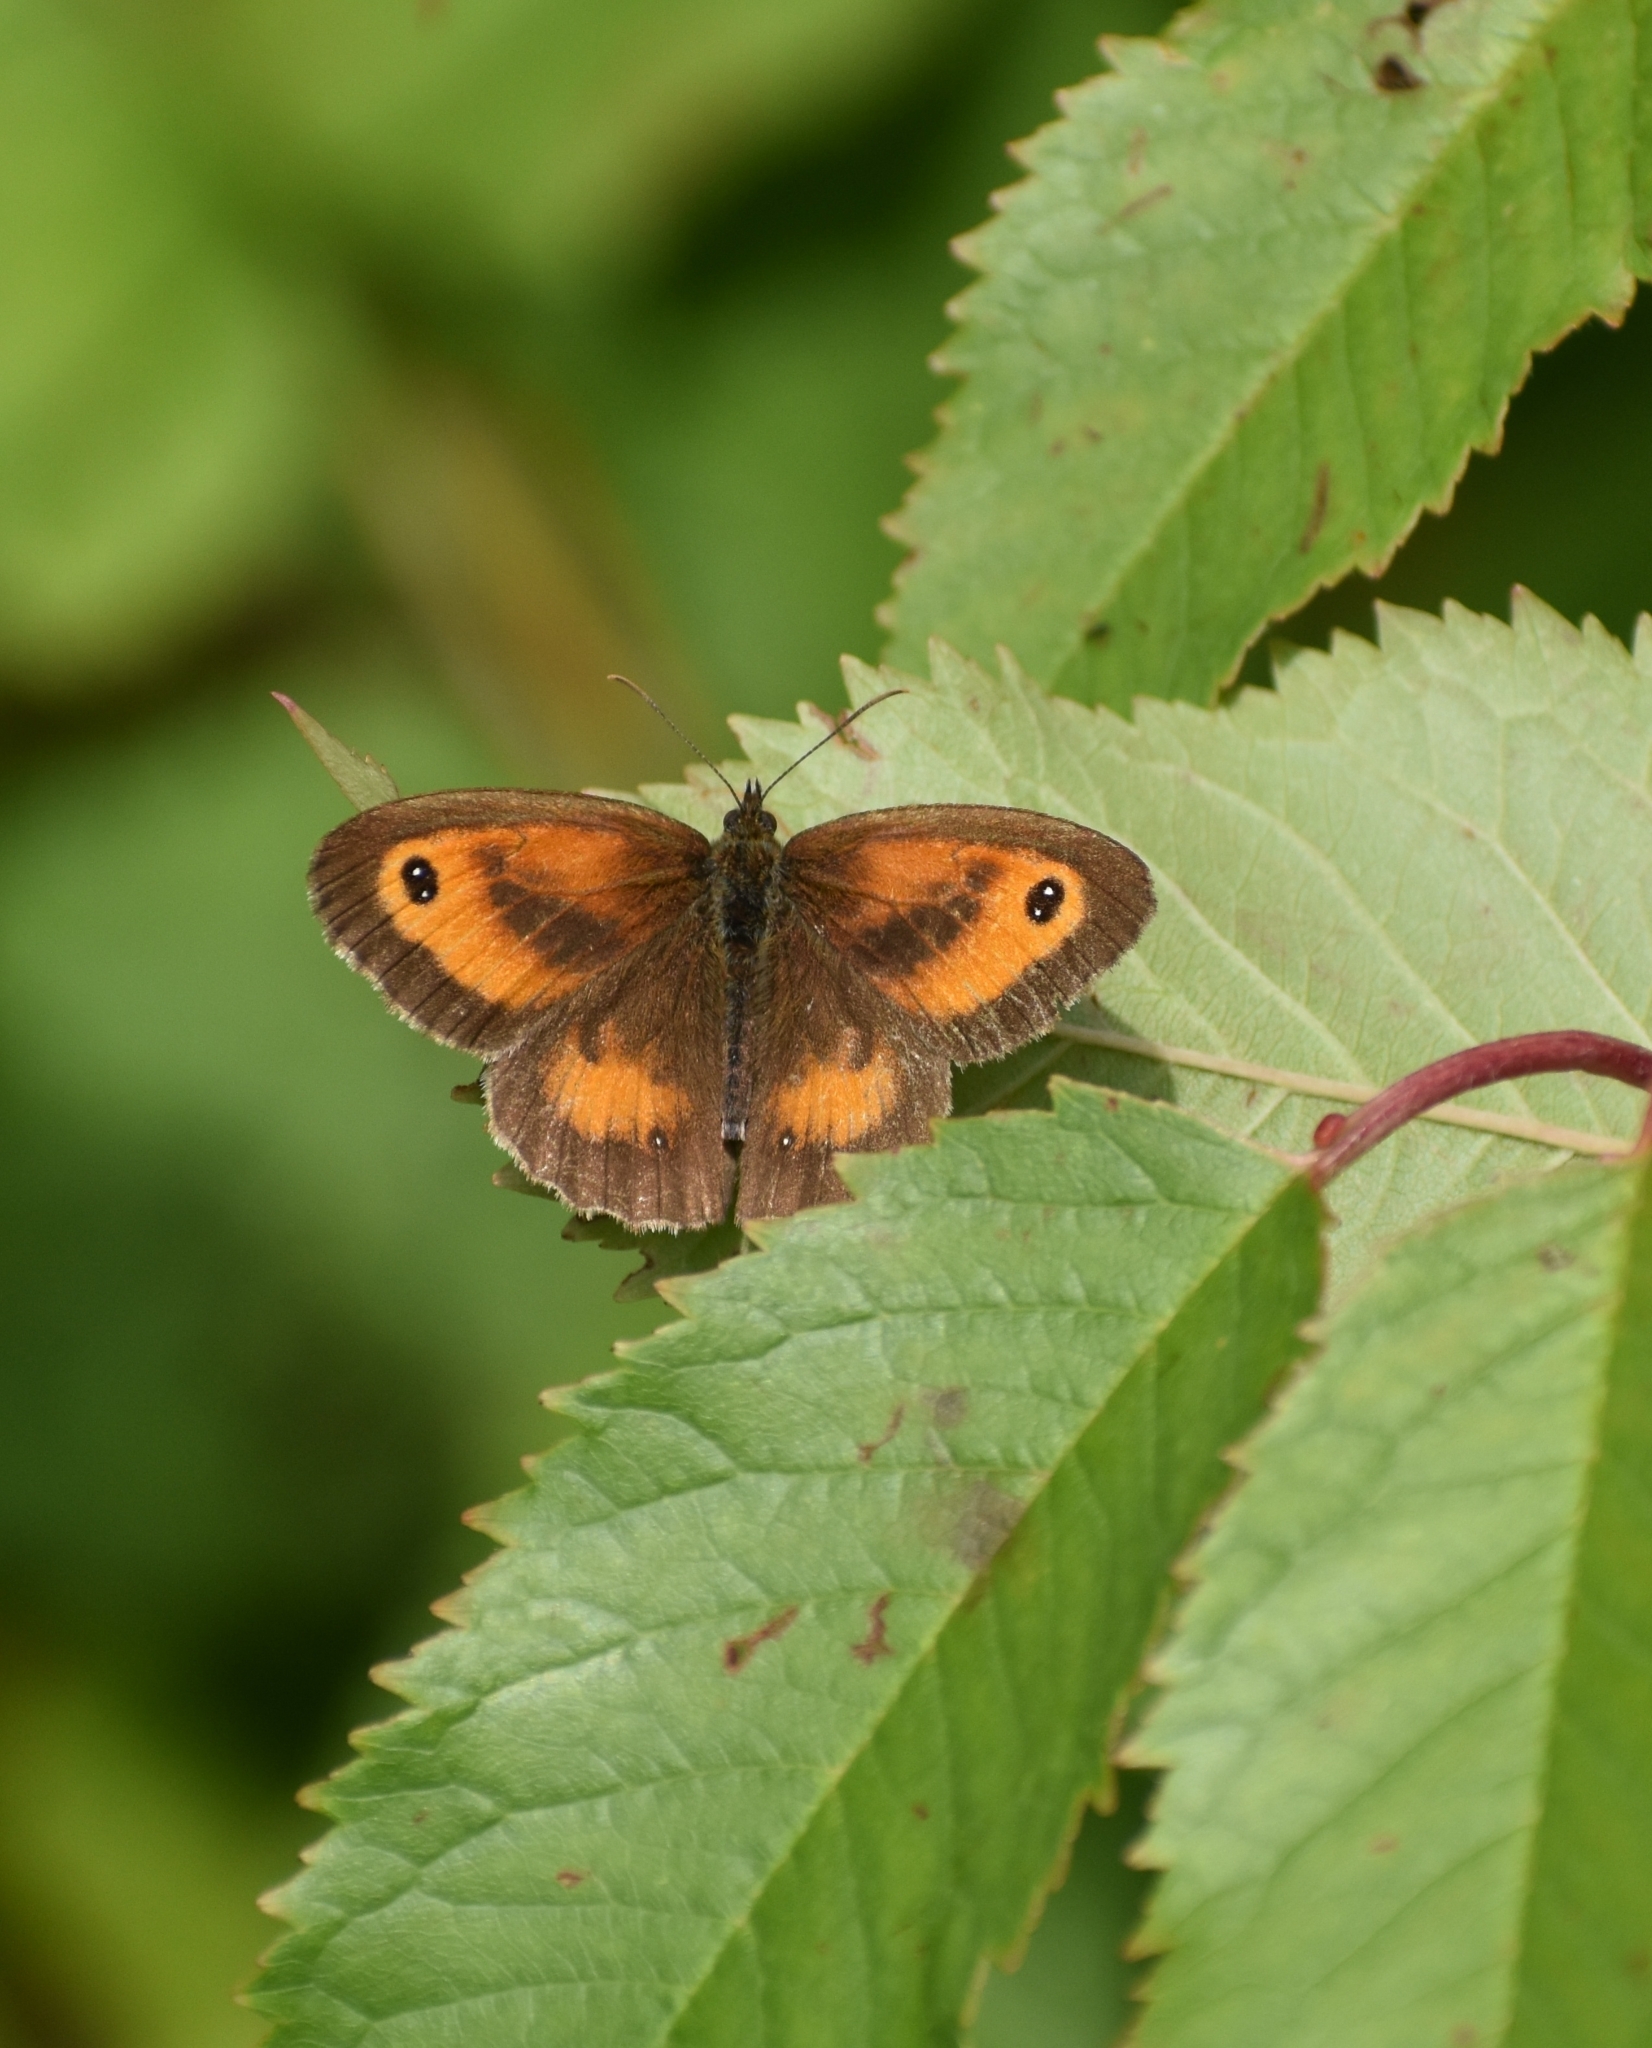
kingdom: Animalia
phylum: Arthropoda
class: Insecta
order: Lepidoptera
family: Nymphalidae
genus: Pyronia
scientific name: Pyronia tithonus
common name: Gatekeeper
